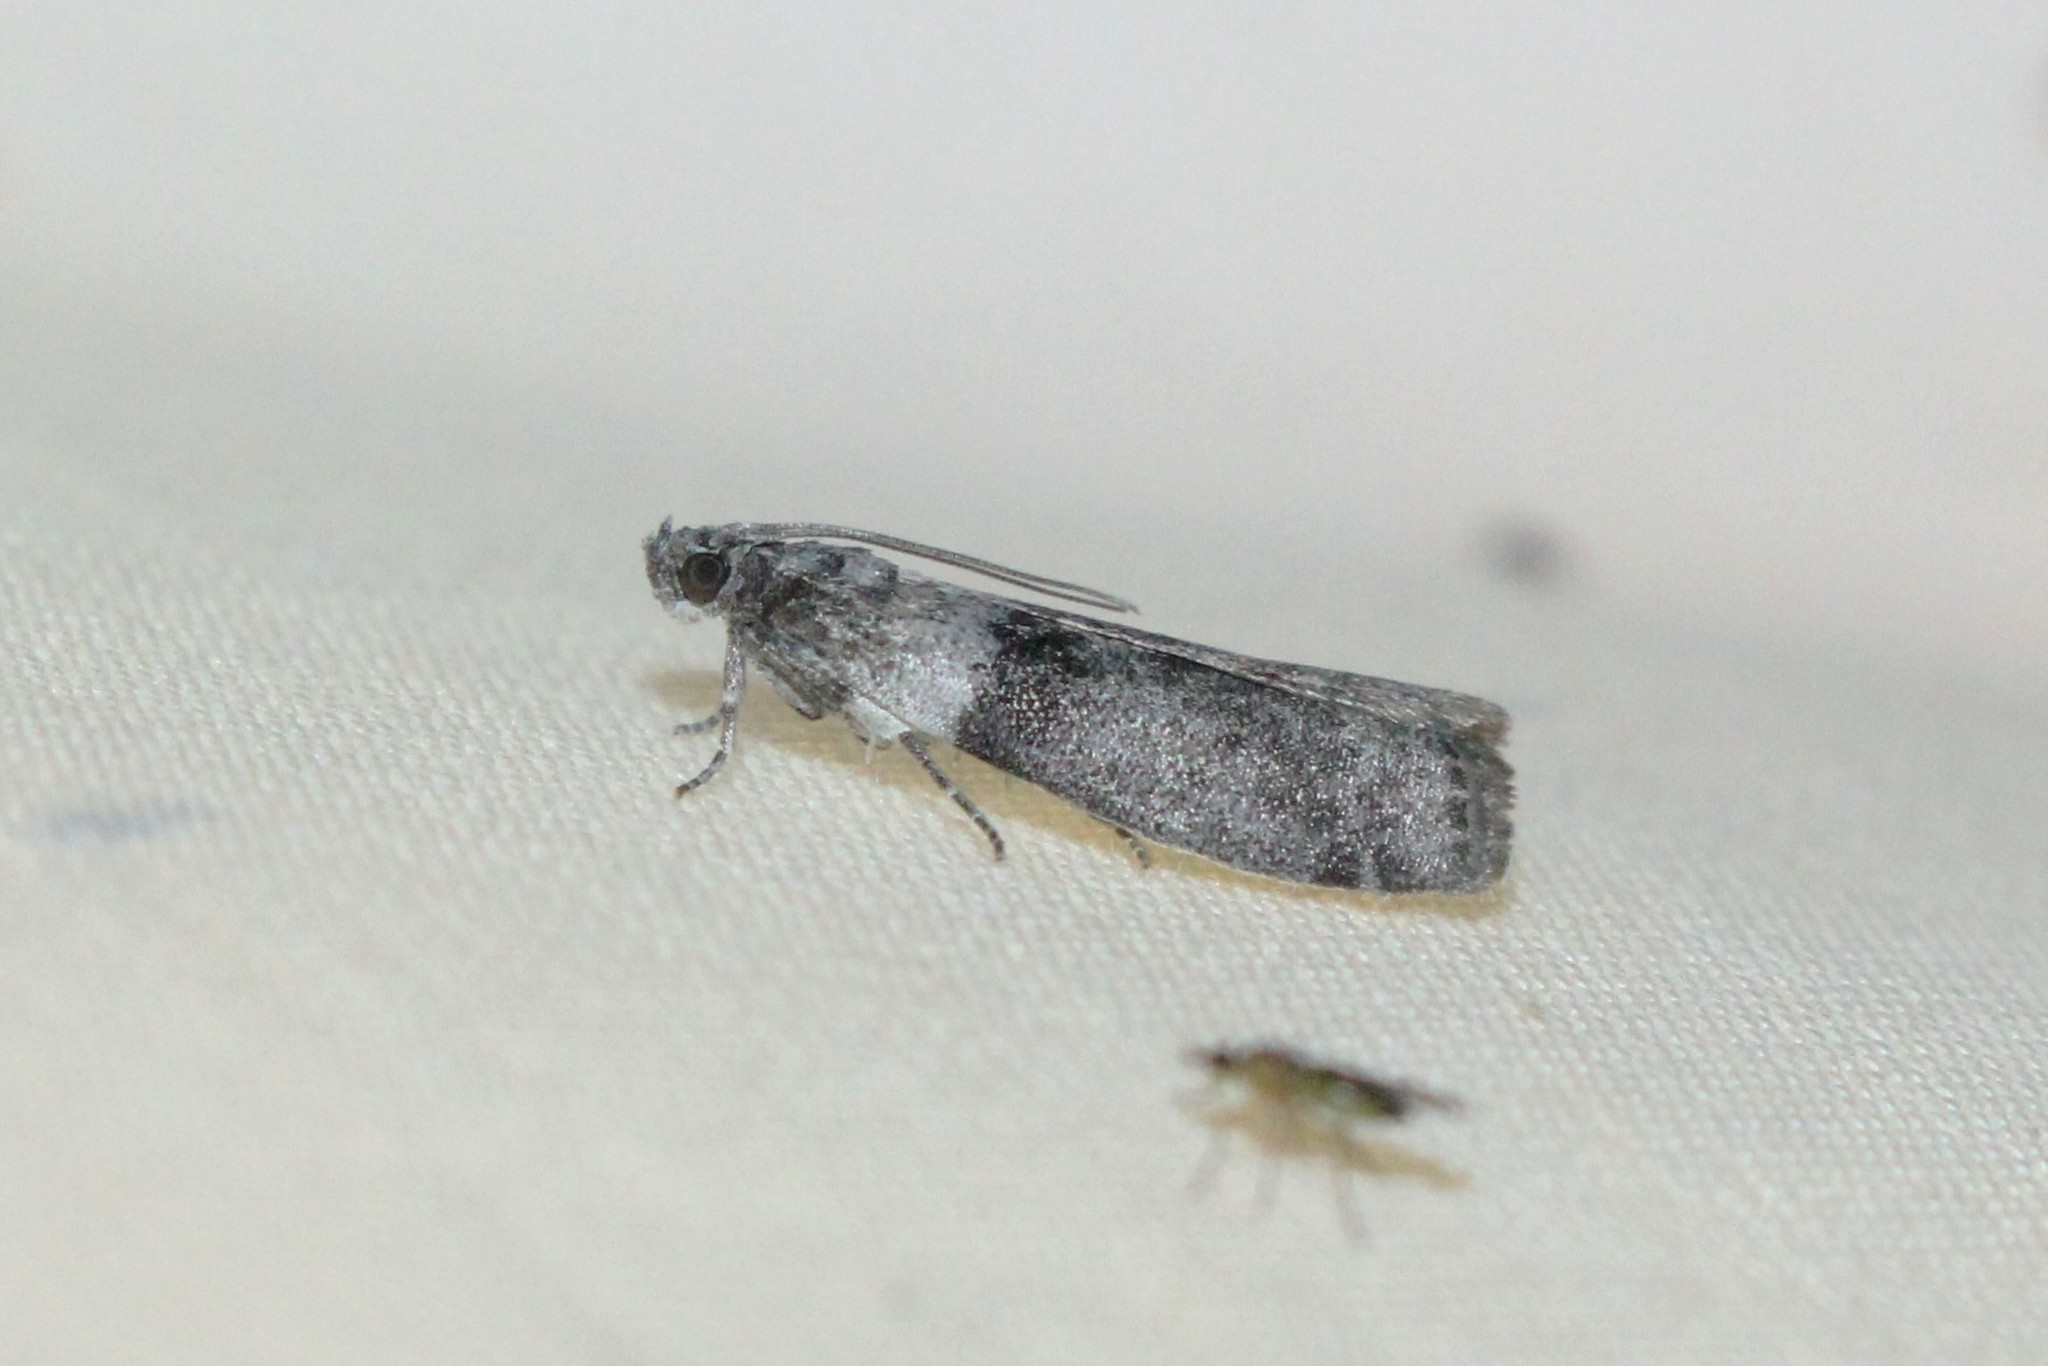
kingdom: Animalia
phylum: Arthropoda
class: Insecta
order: Lepidoptera
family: Pyralidae
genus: Meroptera
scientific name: Meroptera pravella
